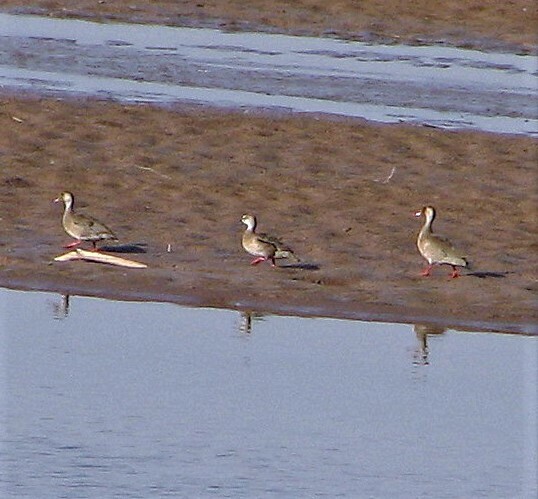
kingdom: Animalia
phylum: Chordata
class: Aves
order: Anseriformes
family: Anatidae
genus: Amazonetta
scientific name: Amazonetta brasiliensis
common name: Brazilian teal
